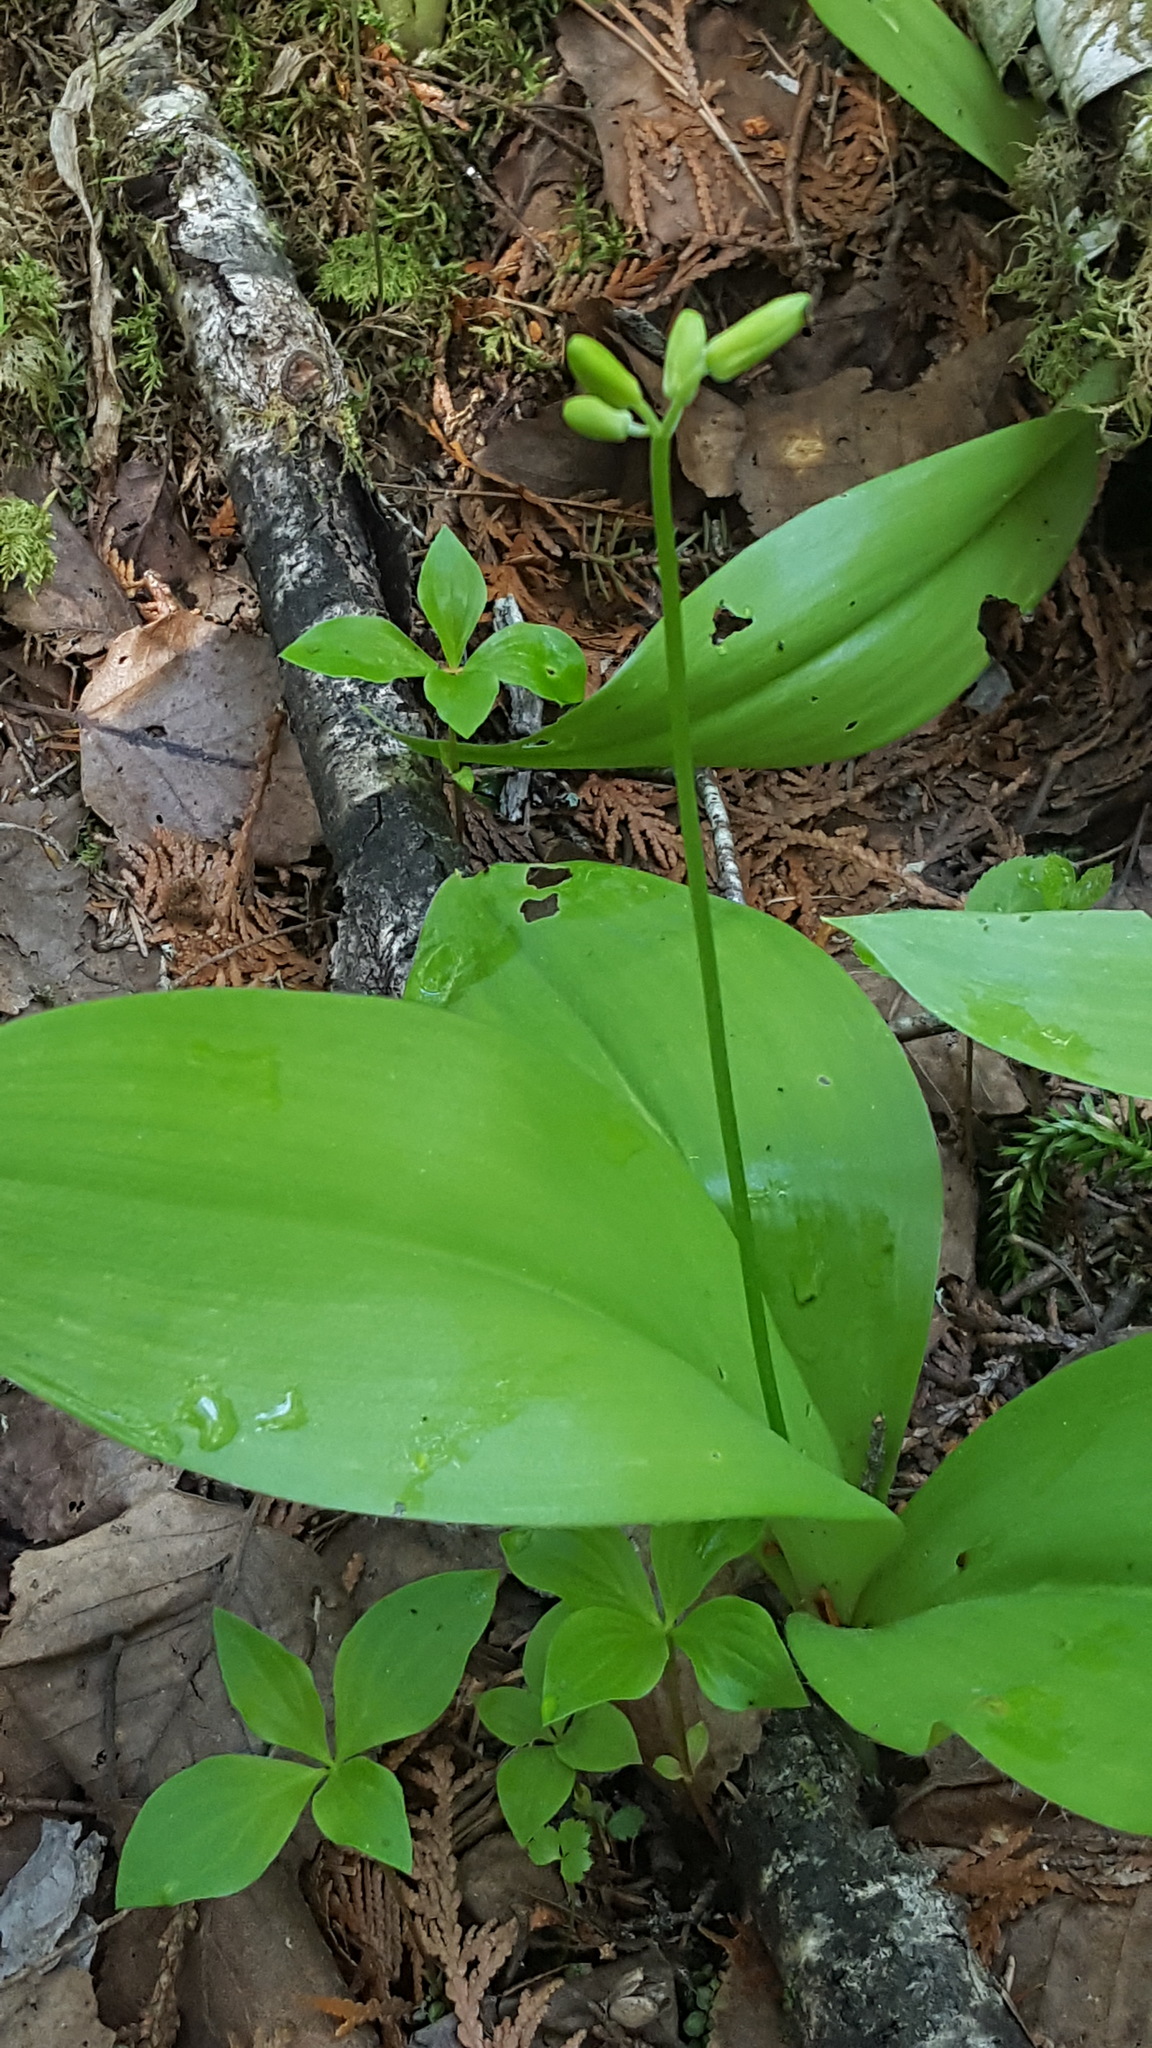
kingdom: Plantae
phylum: Tracheophyta
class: Liliopsida
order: Liliales
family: Liliaceae
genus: Clintonia
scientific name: Clintonia borealis
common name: Yellow clintonia
